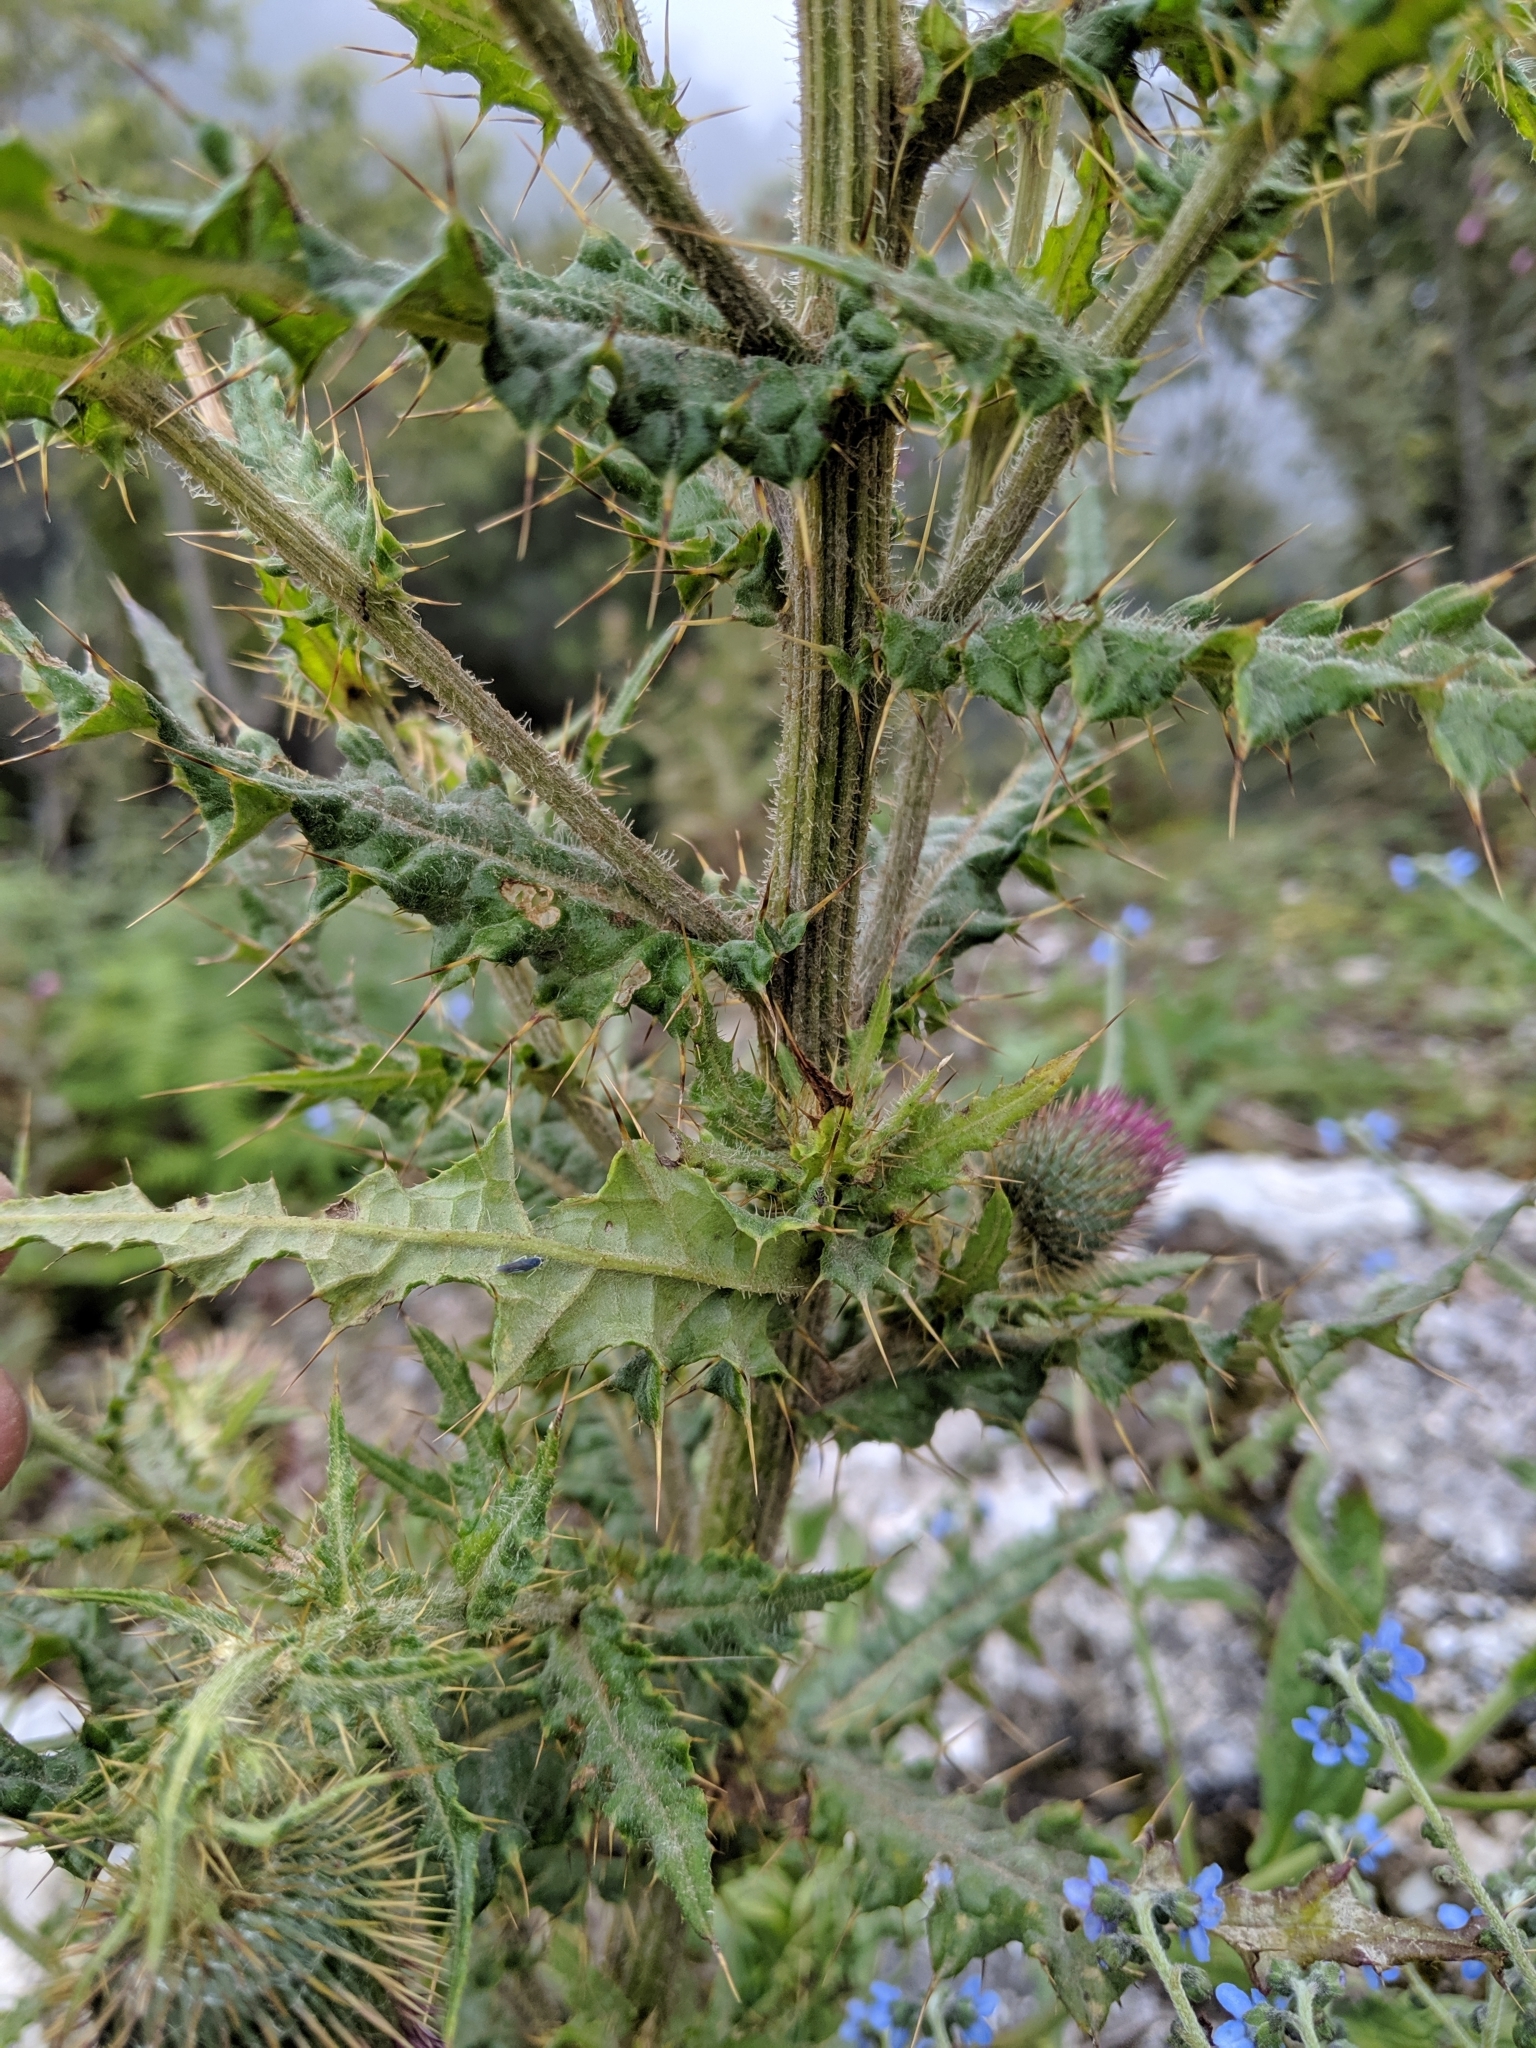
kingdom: Plantae
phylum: Tracheophyta
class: Magnoliopsida
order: Asterales
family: Asteraceae
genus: Cirsium
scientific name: Cirsium ferum
